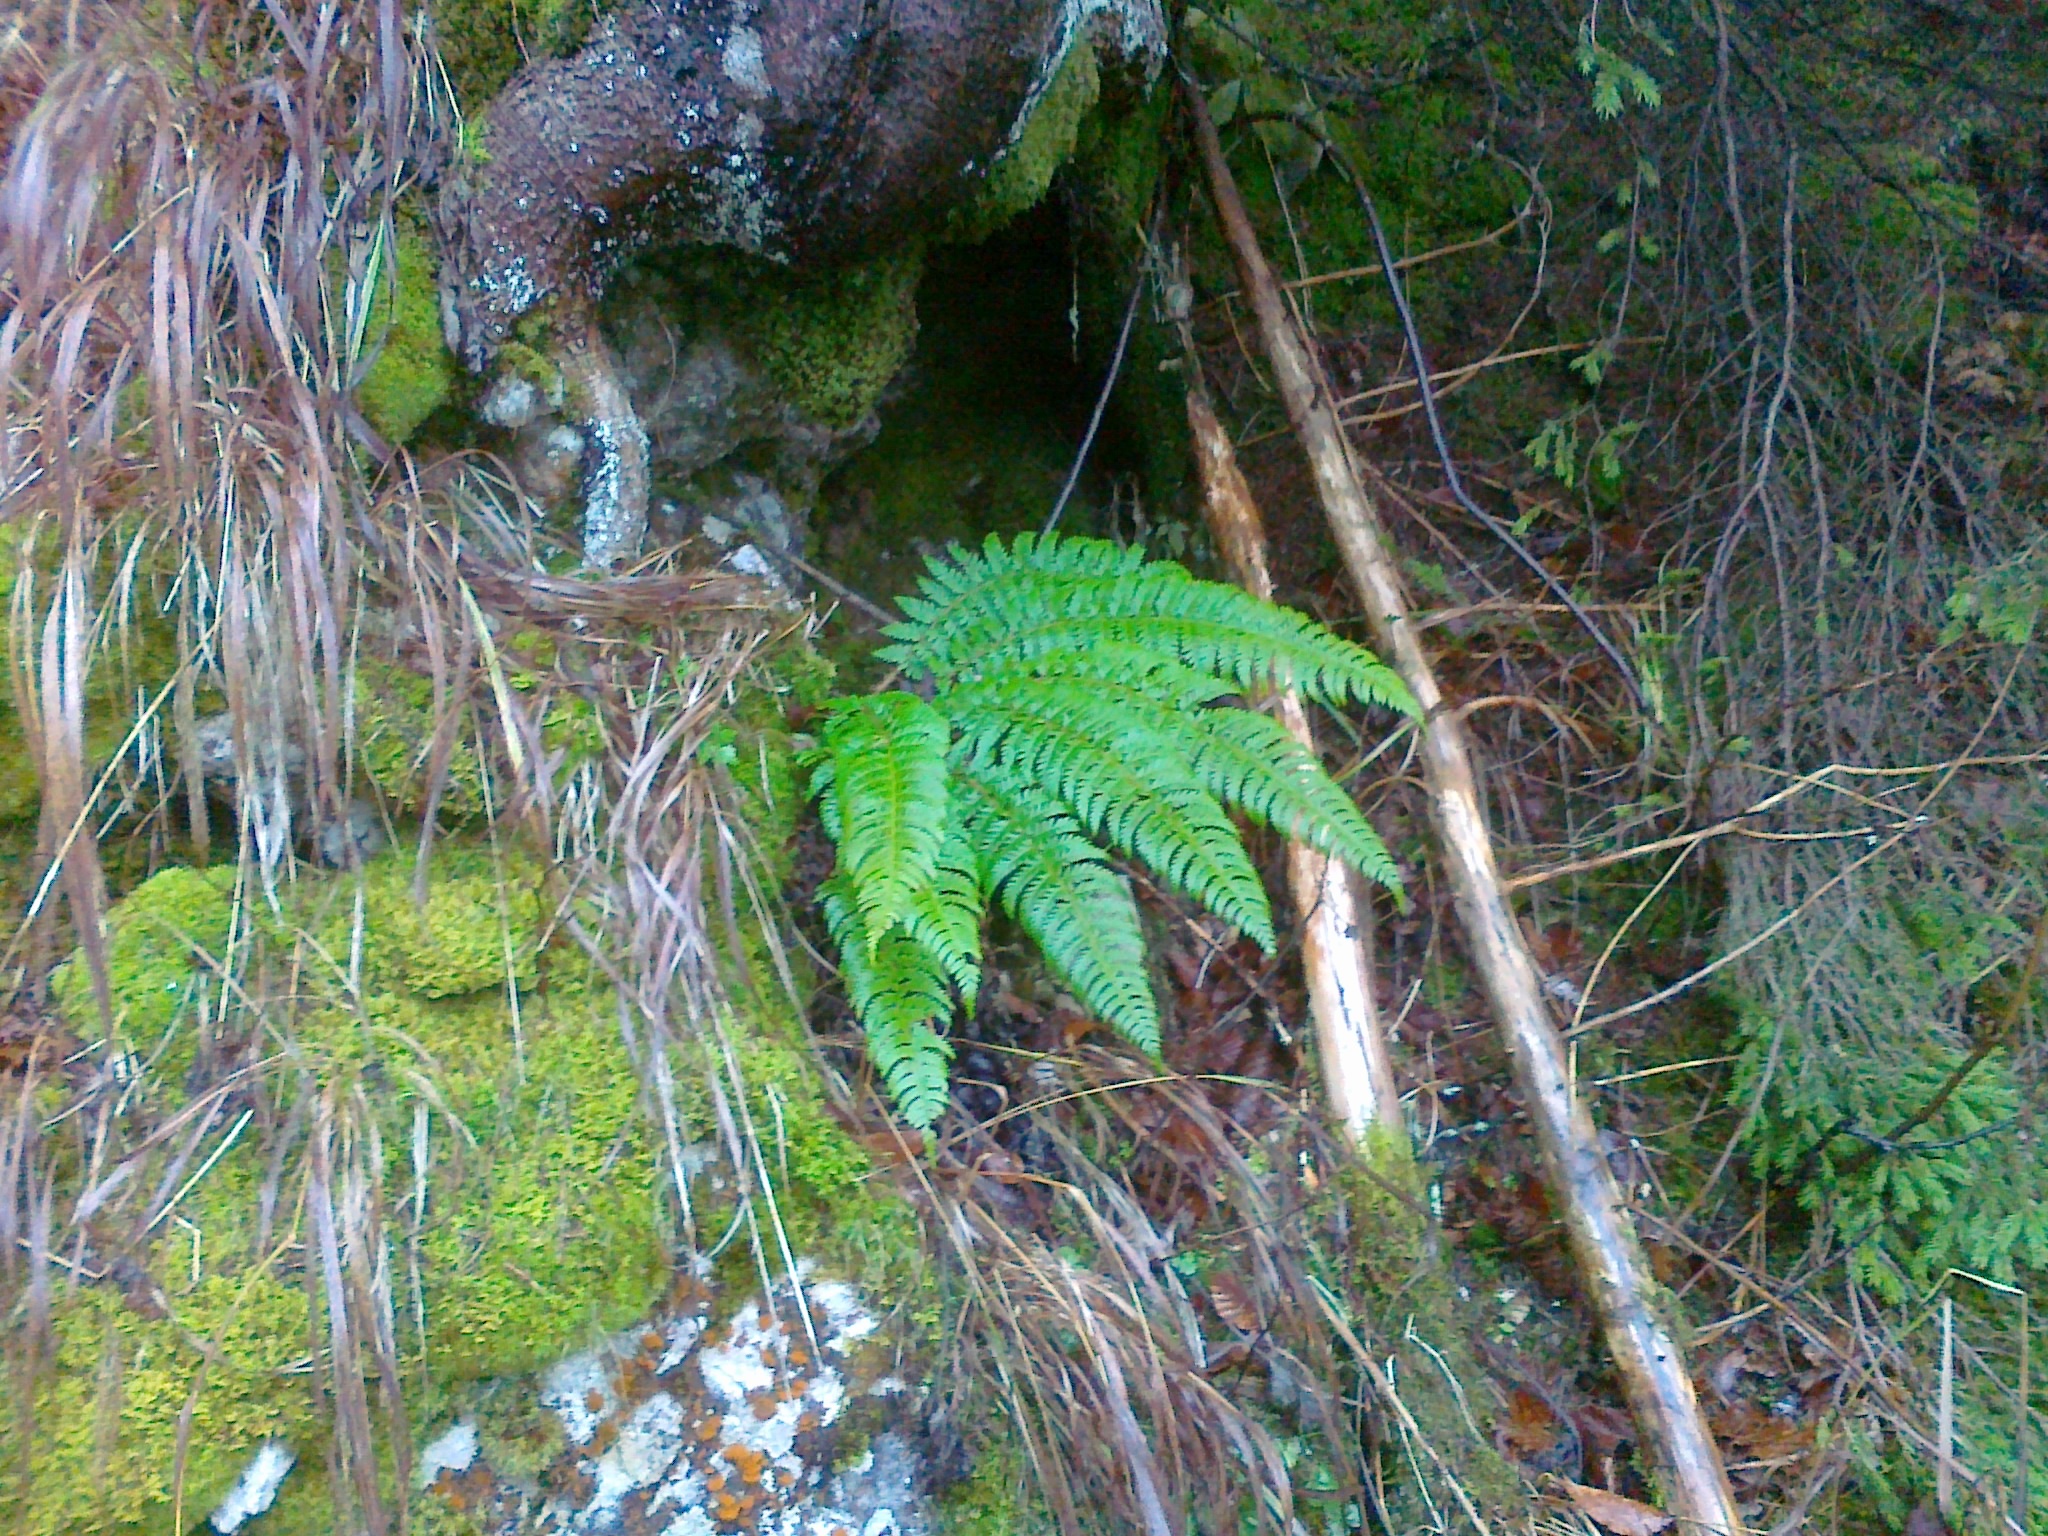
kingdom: Plantae
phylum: Tracheophyta
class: Polypodiopsida
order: Polypodiales
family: Dryopteridaceae
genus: Polystichum
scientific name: Polystichum aculeatum
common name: Hard shield-fern
